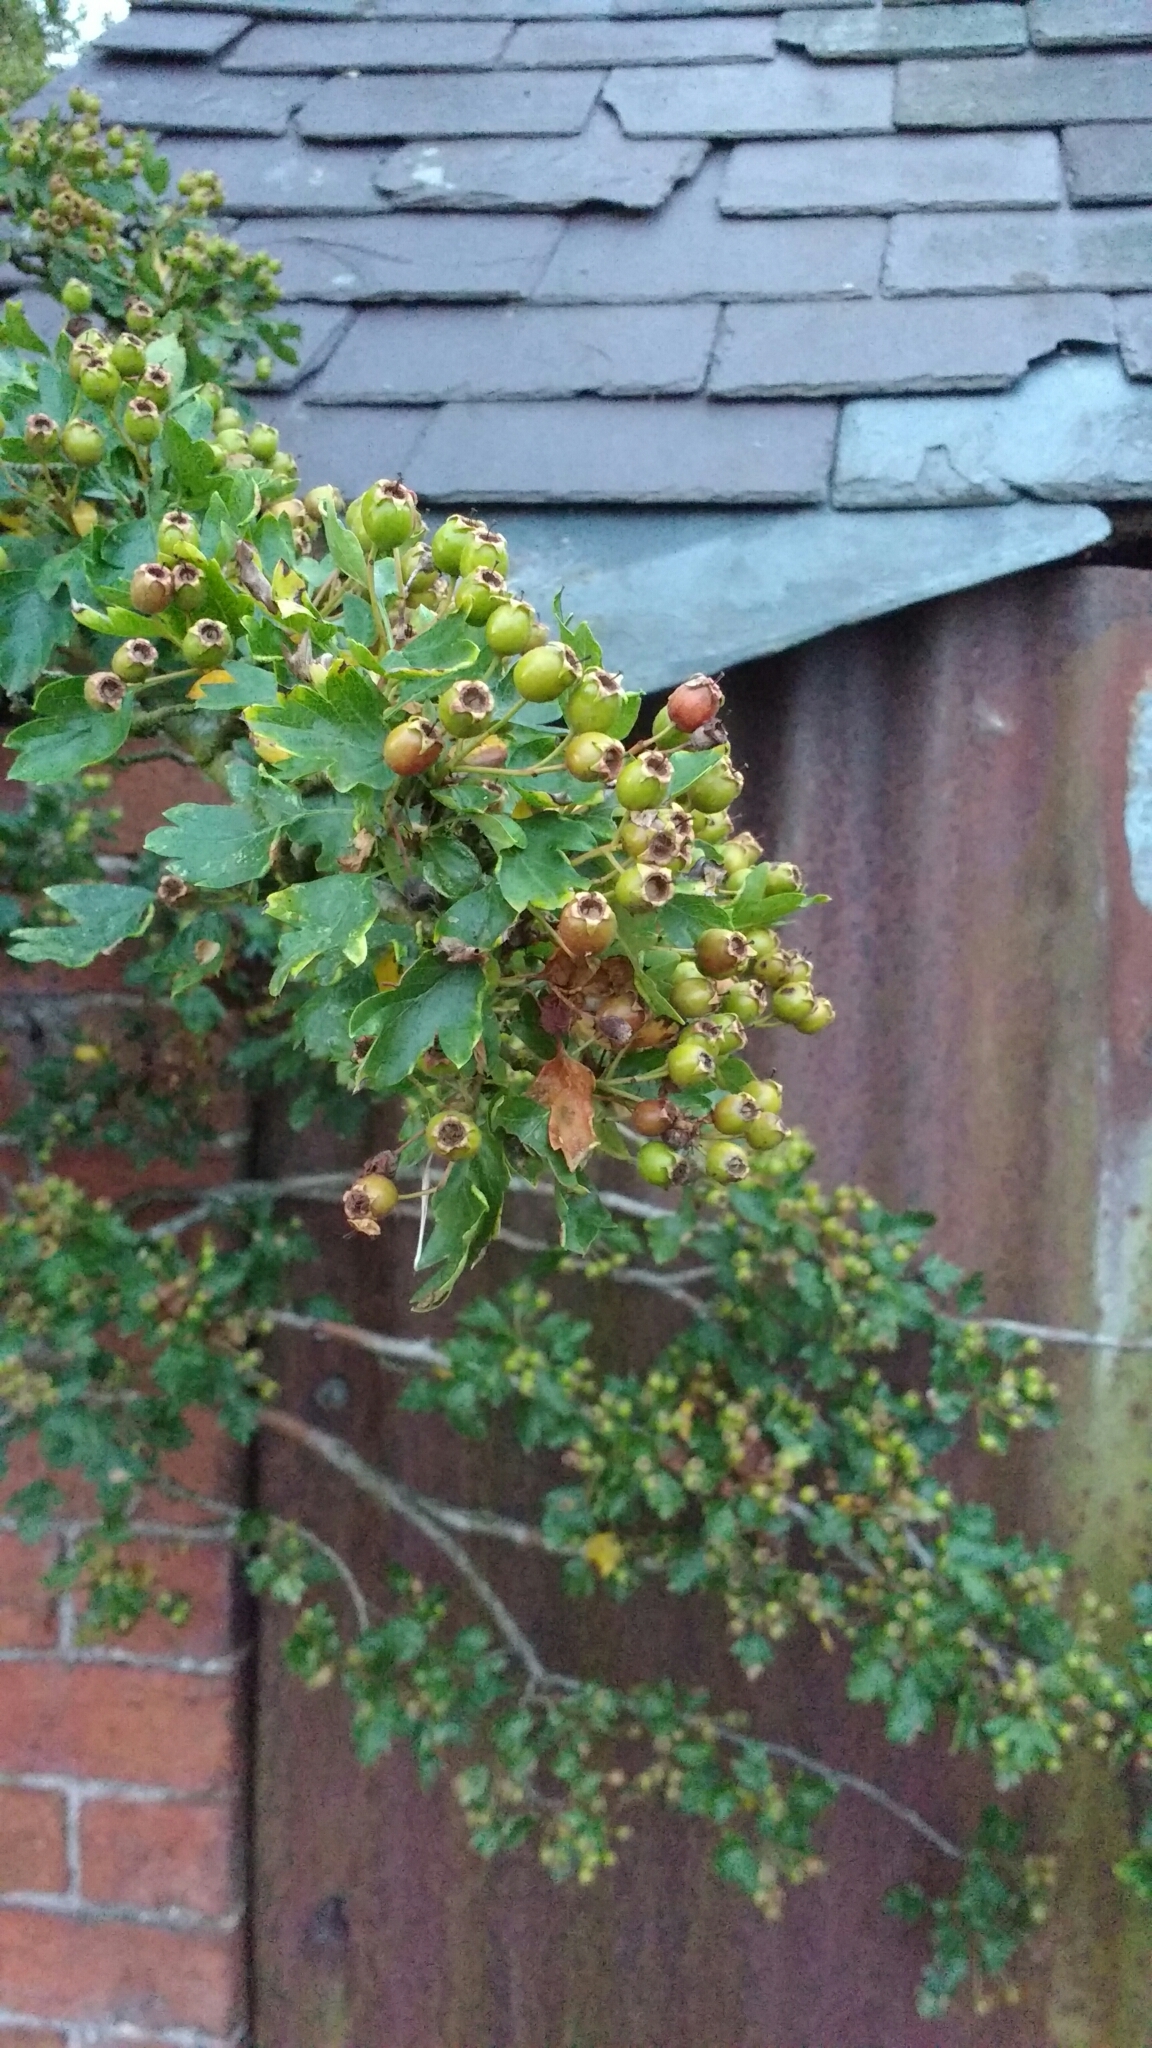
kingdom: Plantae
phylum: Tracheophyta
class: Magnoliopsida
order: Rosales
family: Rosaceae
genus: Crataegus
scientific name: Crataegus monogyna
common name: Hawthorn
